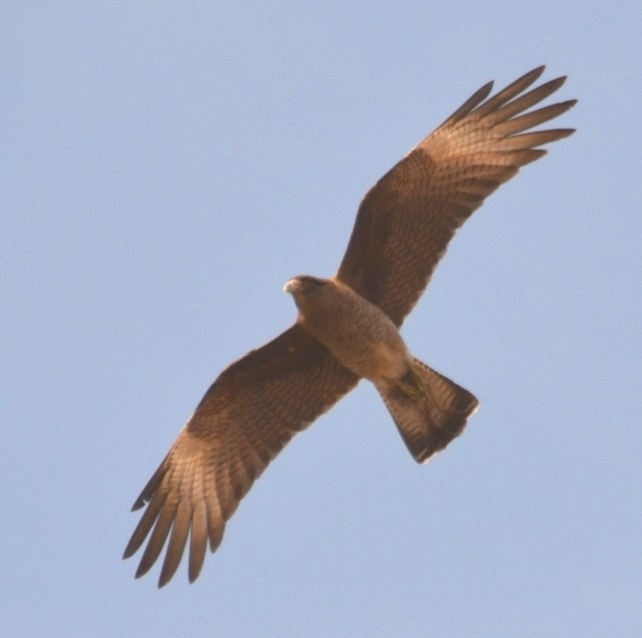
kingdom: Animalia
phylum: Chordata
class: Aves
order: Falconiformes
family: Falconidae
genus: Daptrius
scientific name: Daptrius
